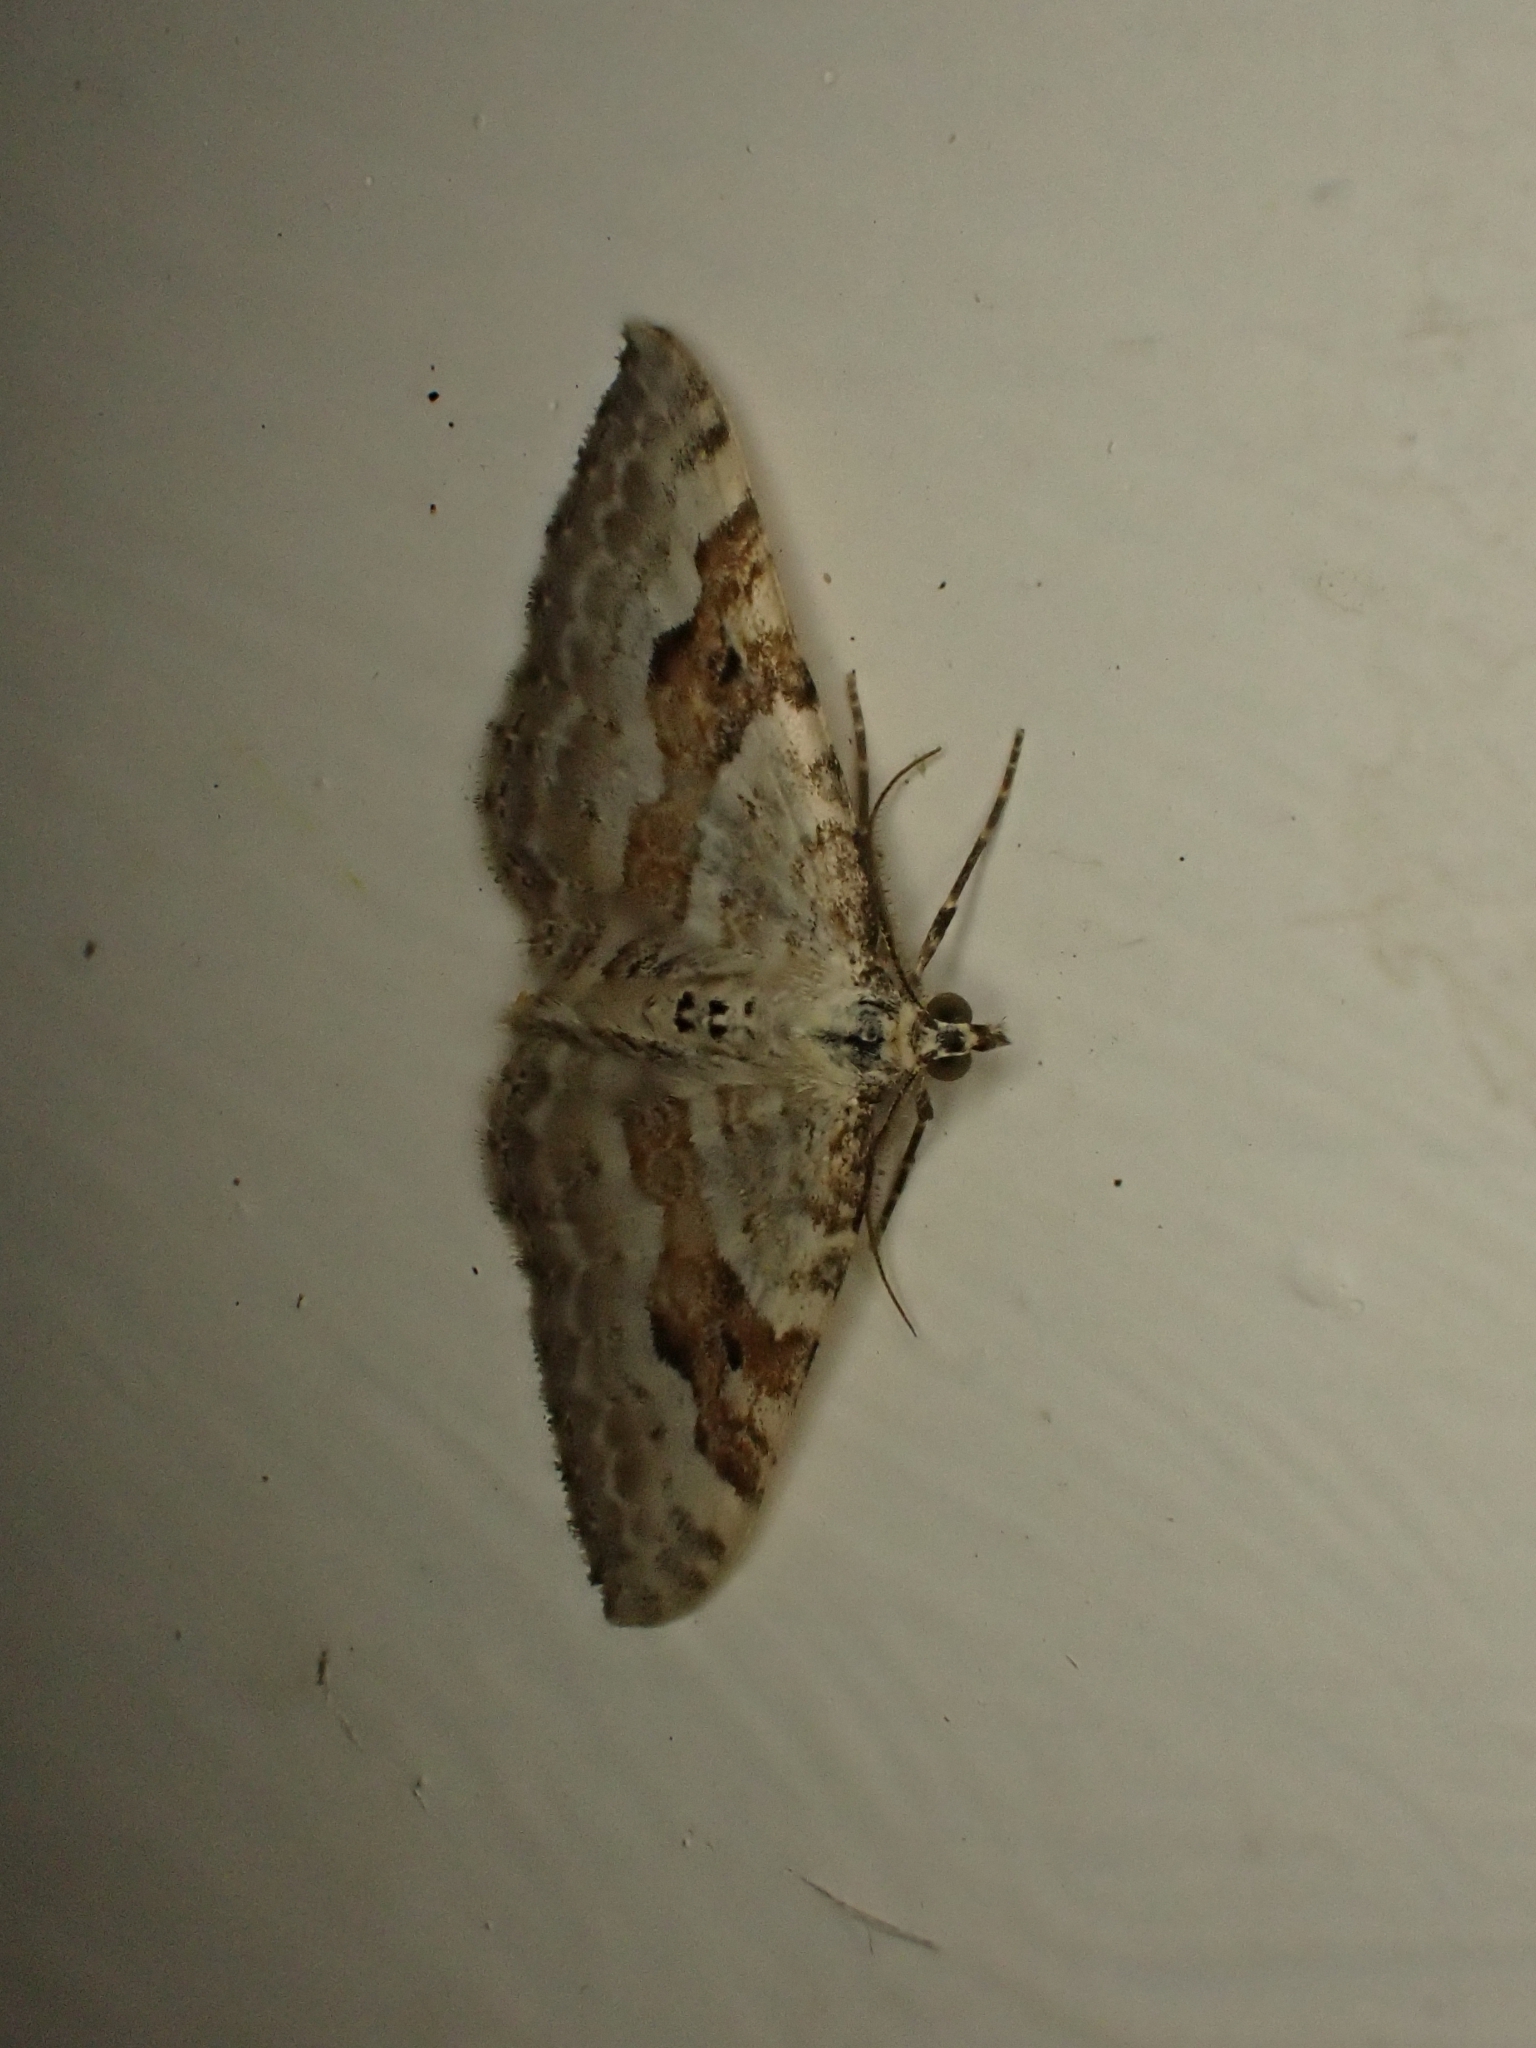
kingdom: Animalia
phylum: Arthropoda
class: Insecta
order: Lepidoptera
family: Geometridae
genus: Xanthorhoe
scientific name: Xanthorhoe montanata
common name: Silver-ground carpet
